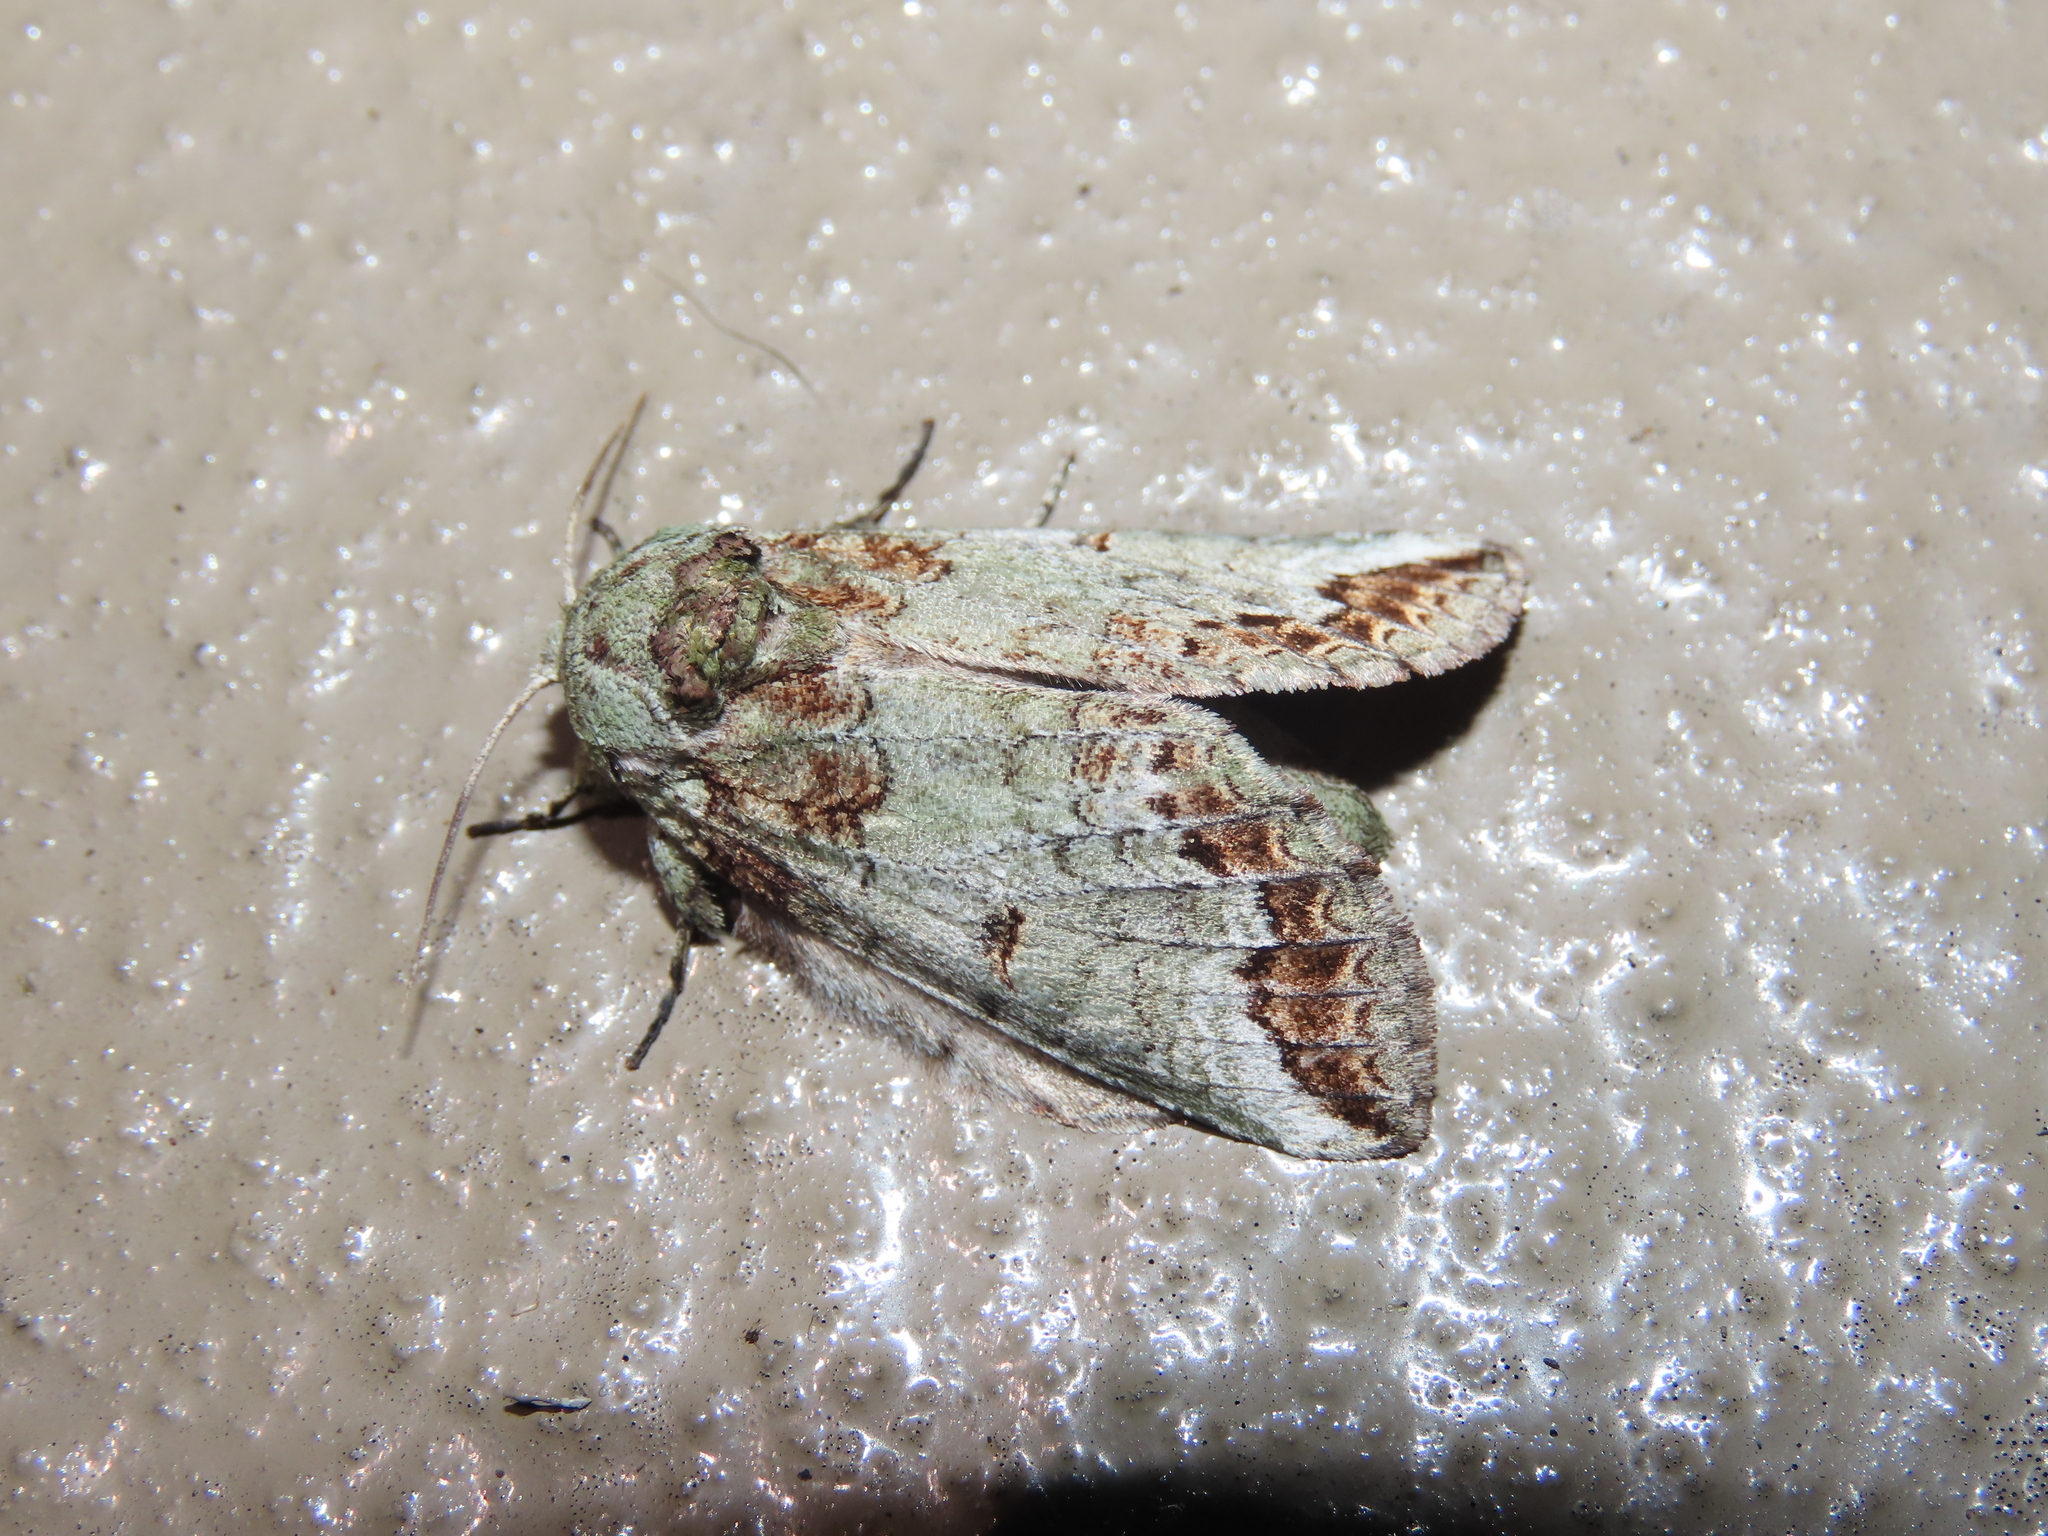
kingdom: Animalia
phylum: Arthropoda
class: Insecta
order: Lepidoptera
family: Notodontidae
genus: Heterocampa
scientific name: Heterocampa astarte
